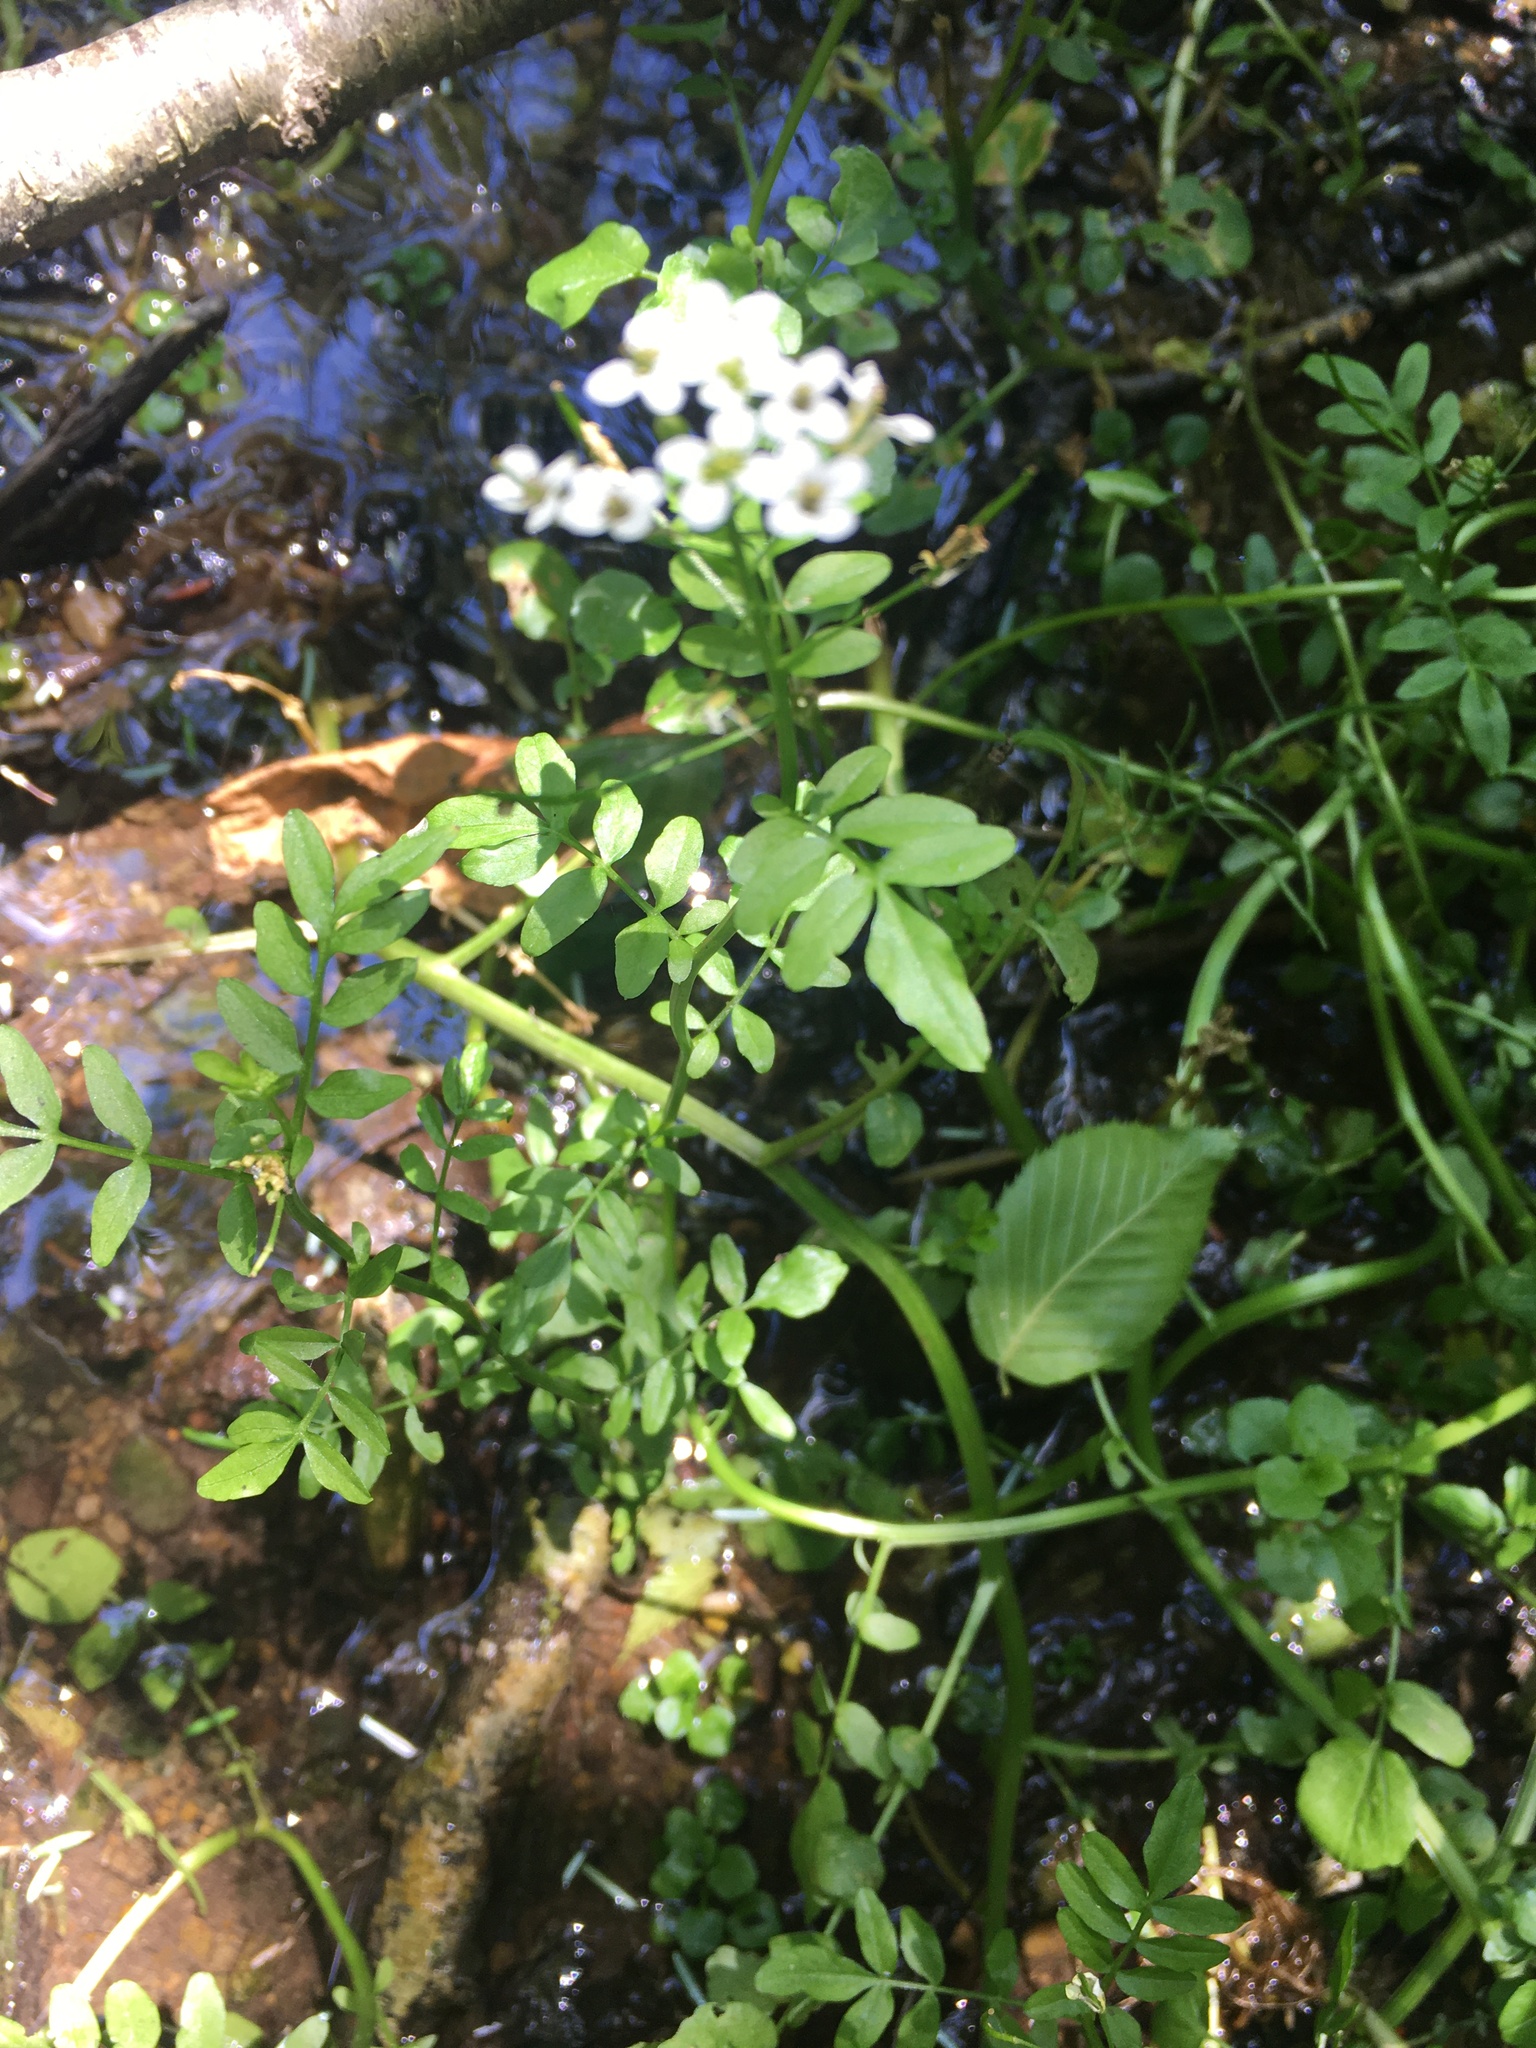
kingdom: Plantae
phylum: Tracheophyta
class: Magnoliopsida
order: Brassicales
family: Brassicaceae
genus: Nasturtium
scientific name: Nasturtium officinale
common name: Watercress
